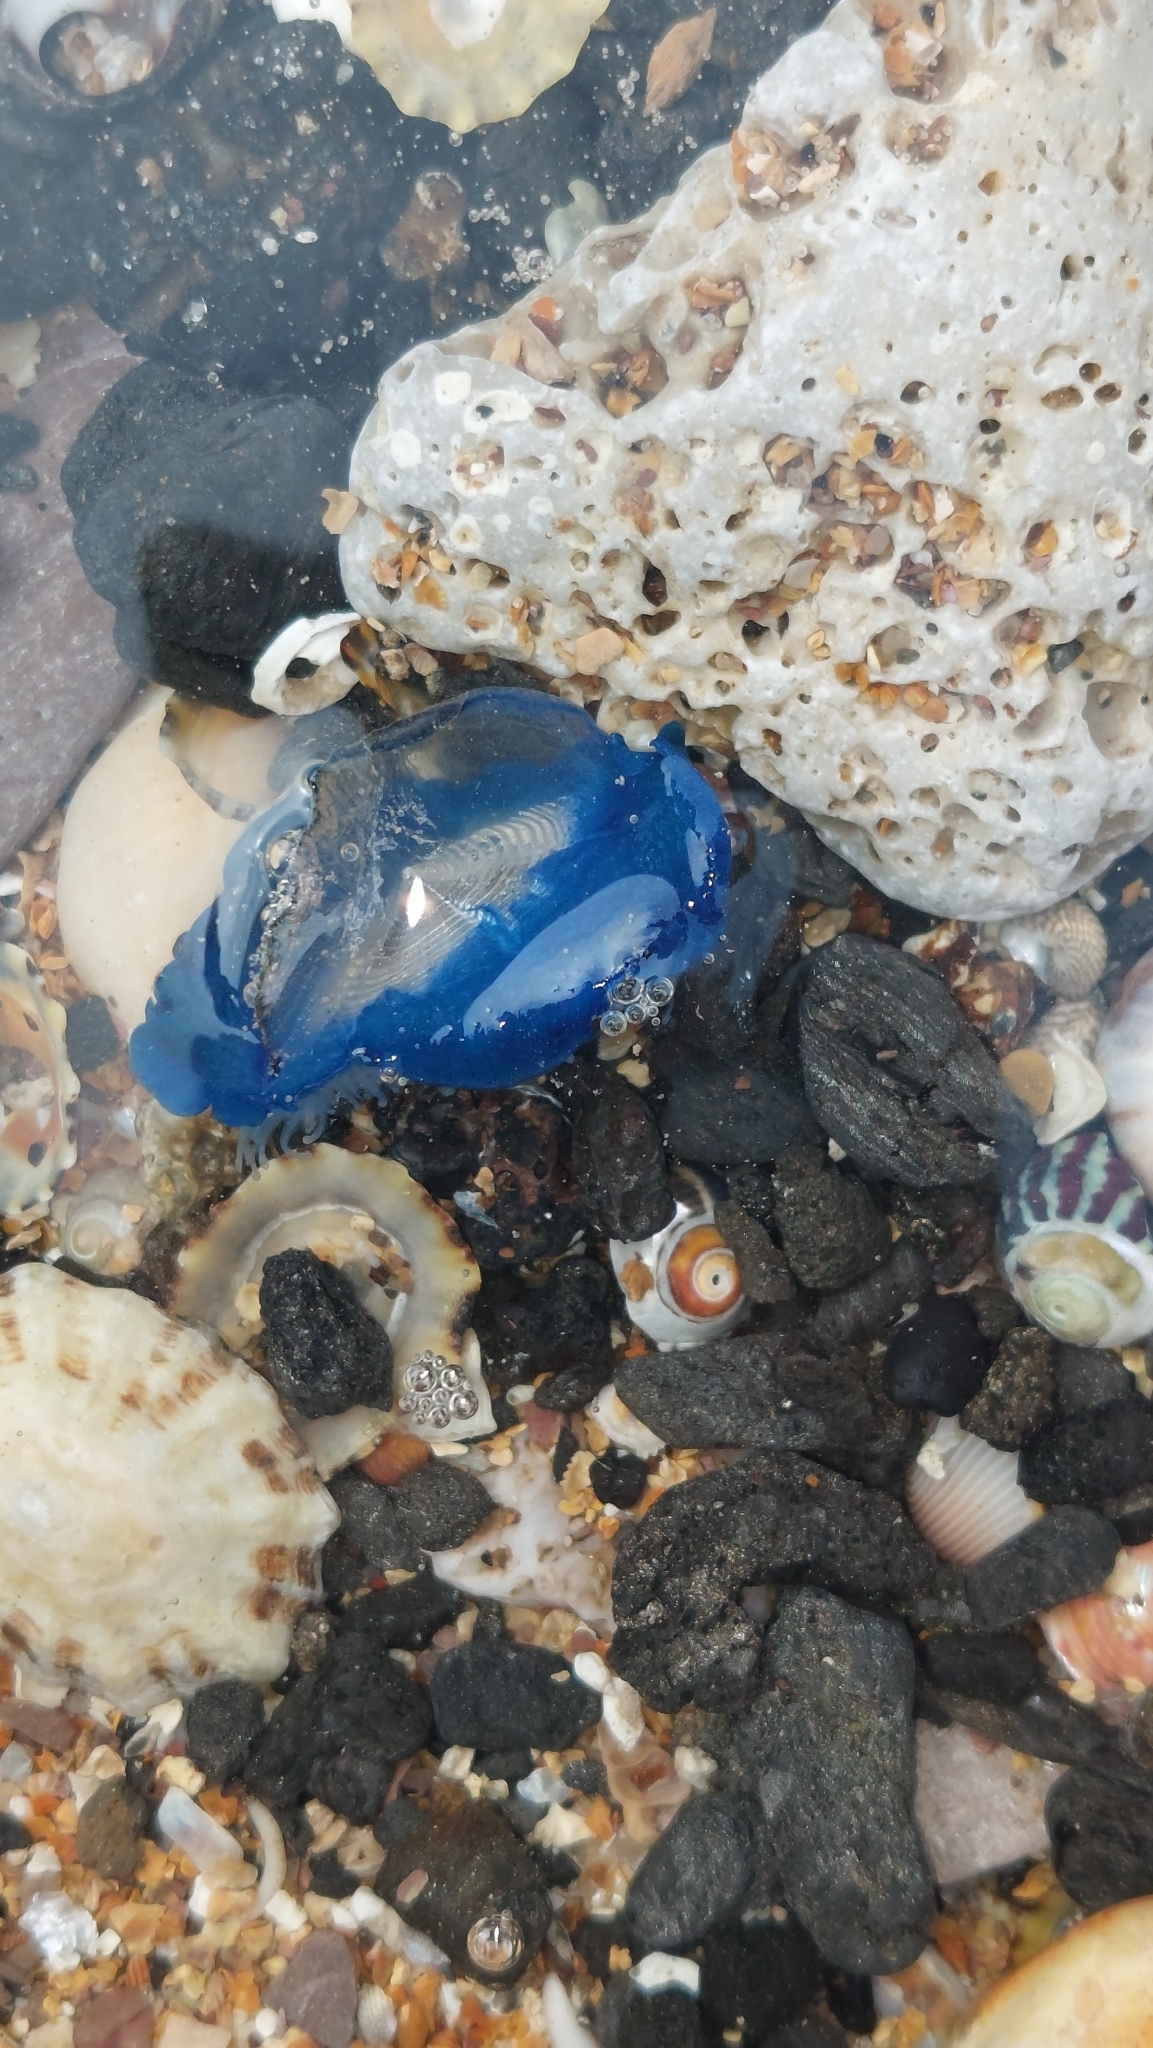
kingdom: Animalia
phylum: Cnidaria
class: Hydrozoa
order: Anthoathecata
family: Porpitidae
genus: Velella
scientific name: Velella velella
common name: By-the-wind-sailor
